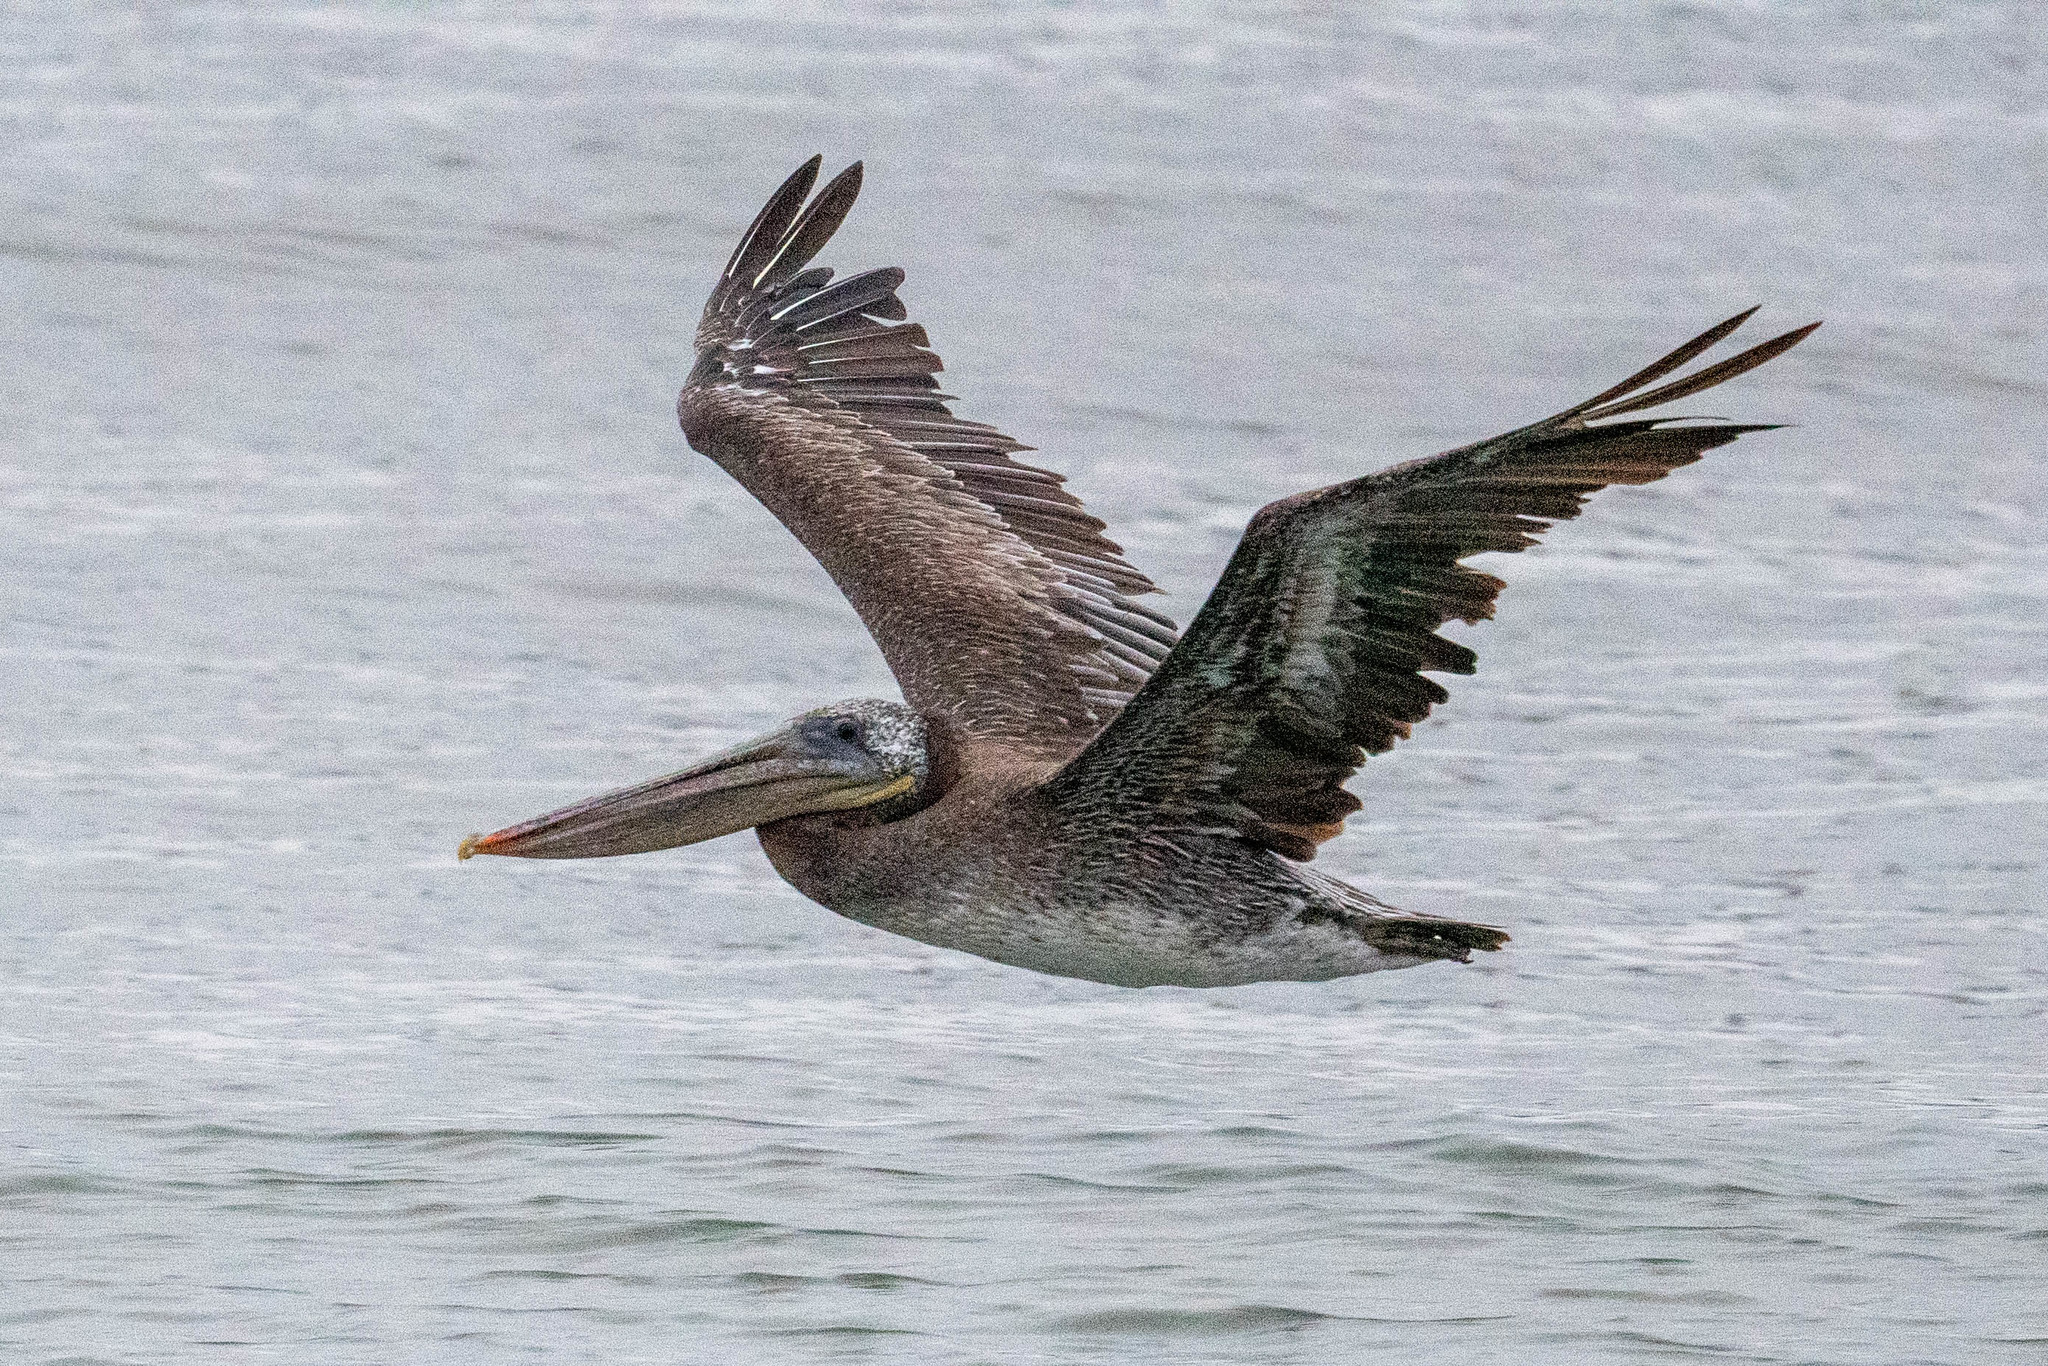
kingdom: Animalia
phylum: Chordata
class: Aves
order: Pelecaniformes
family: Pelecanidae
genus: Pelecanus
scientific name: Pelecanus occidentalis
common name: Brown pelican
